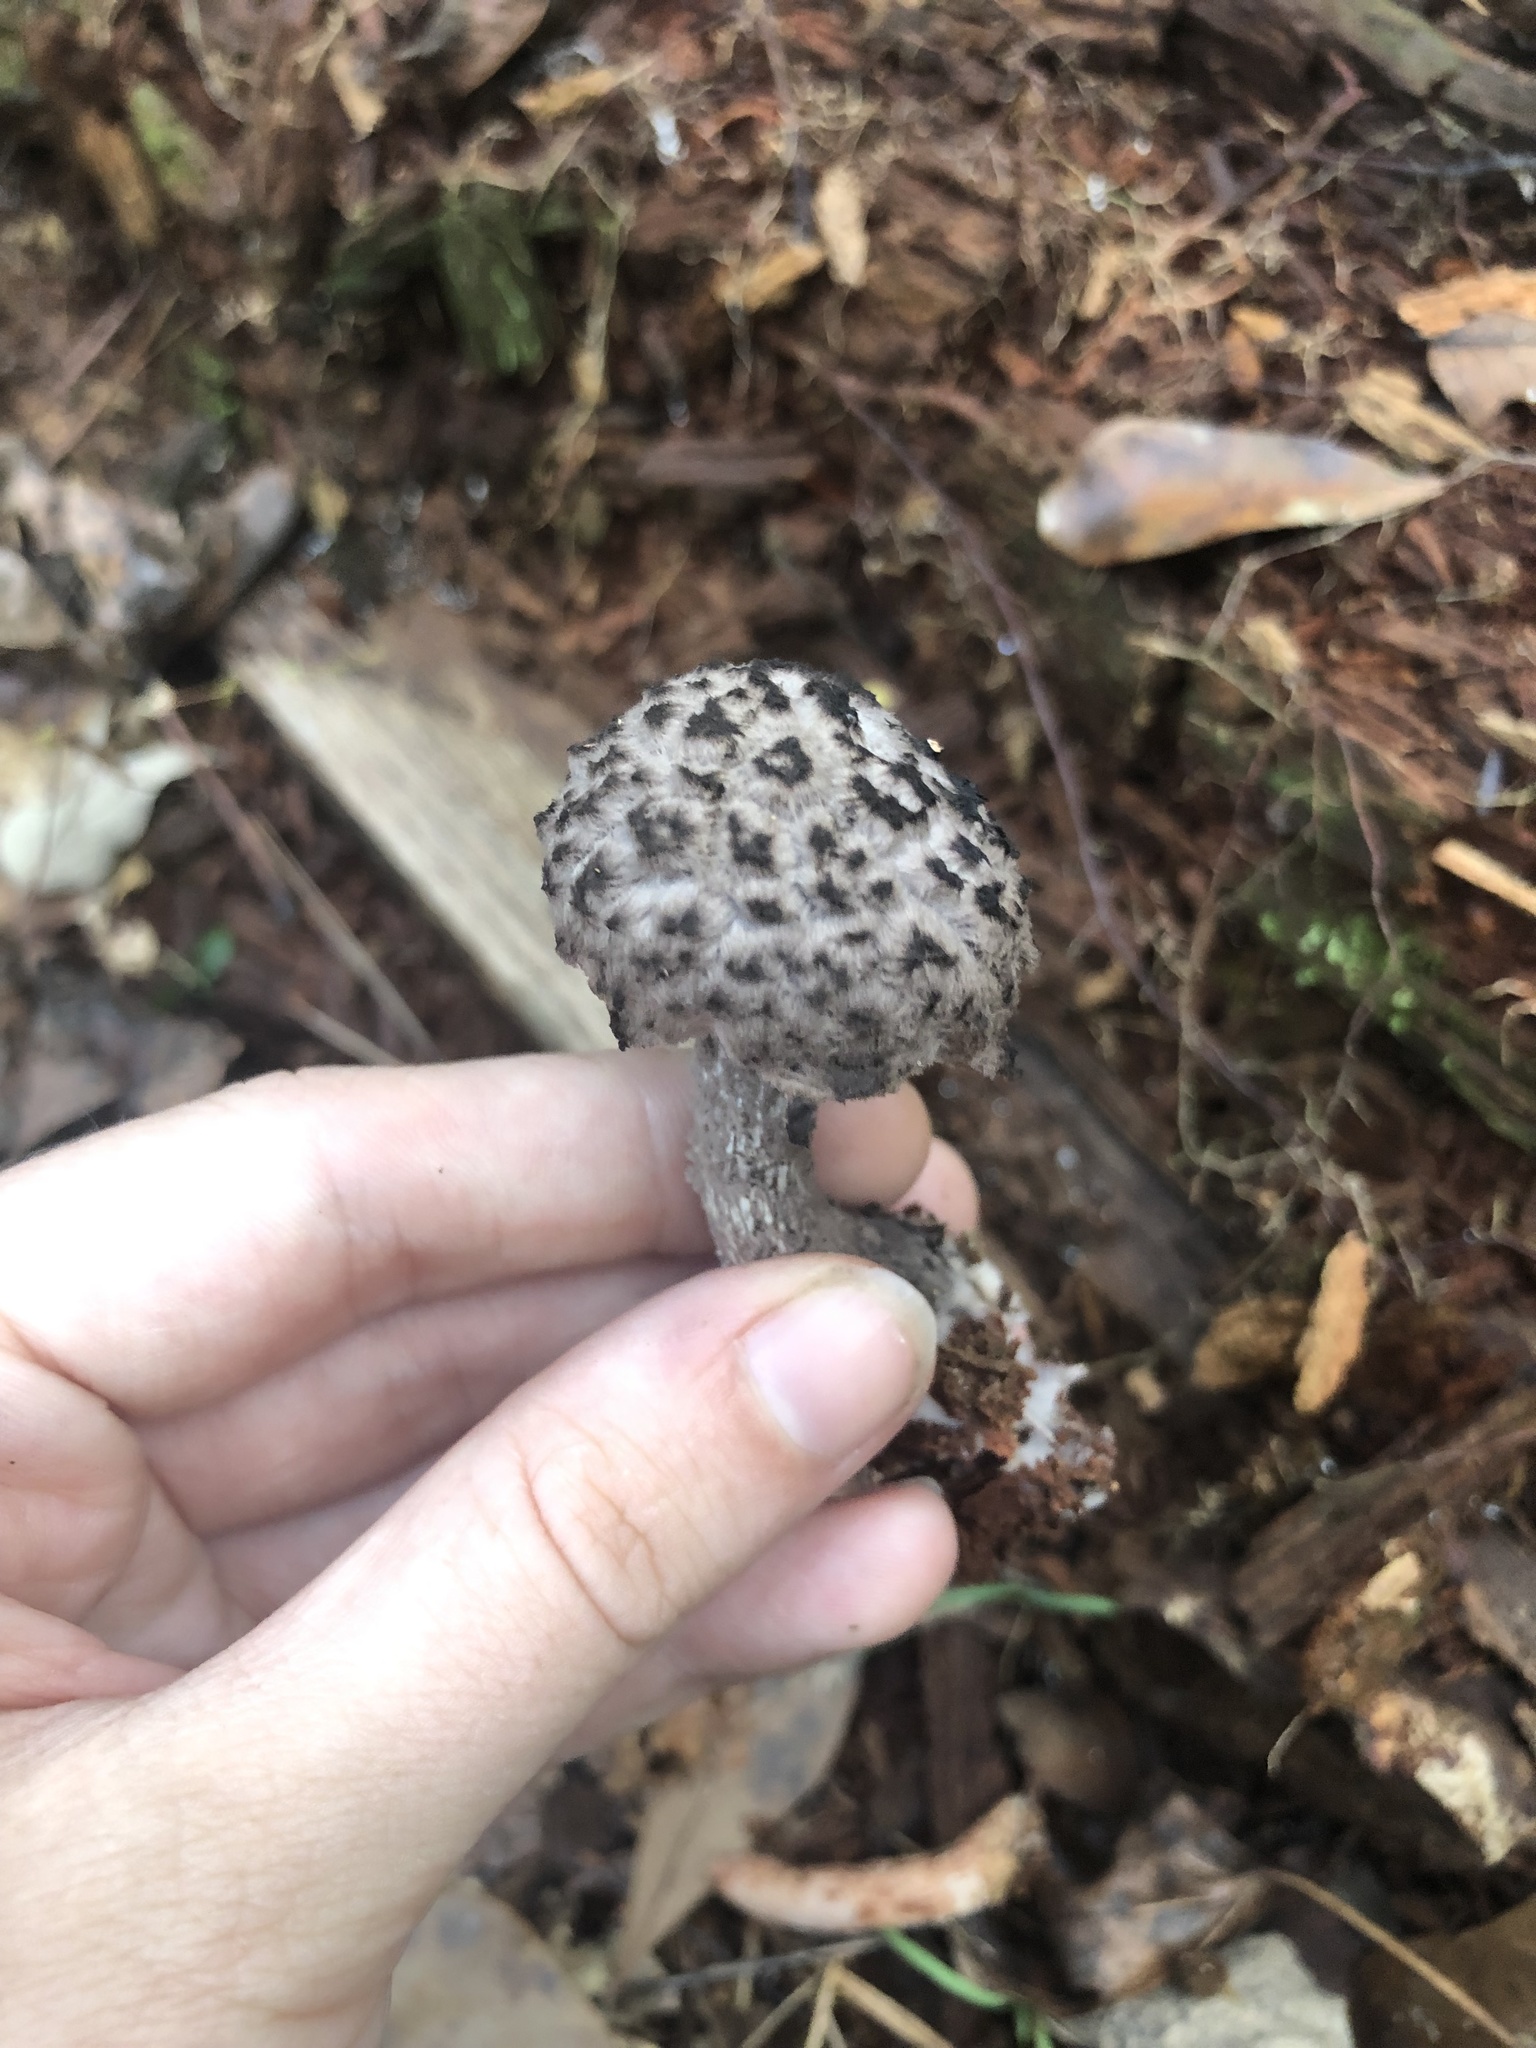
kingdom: Fungi
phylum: Basidiomycota
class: Agaricomycetes
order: Boletales
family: Boletaceae
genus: Strobilomyces
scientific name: Strobilomyces strobilaceus
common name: Old man of the woods
